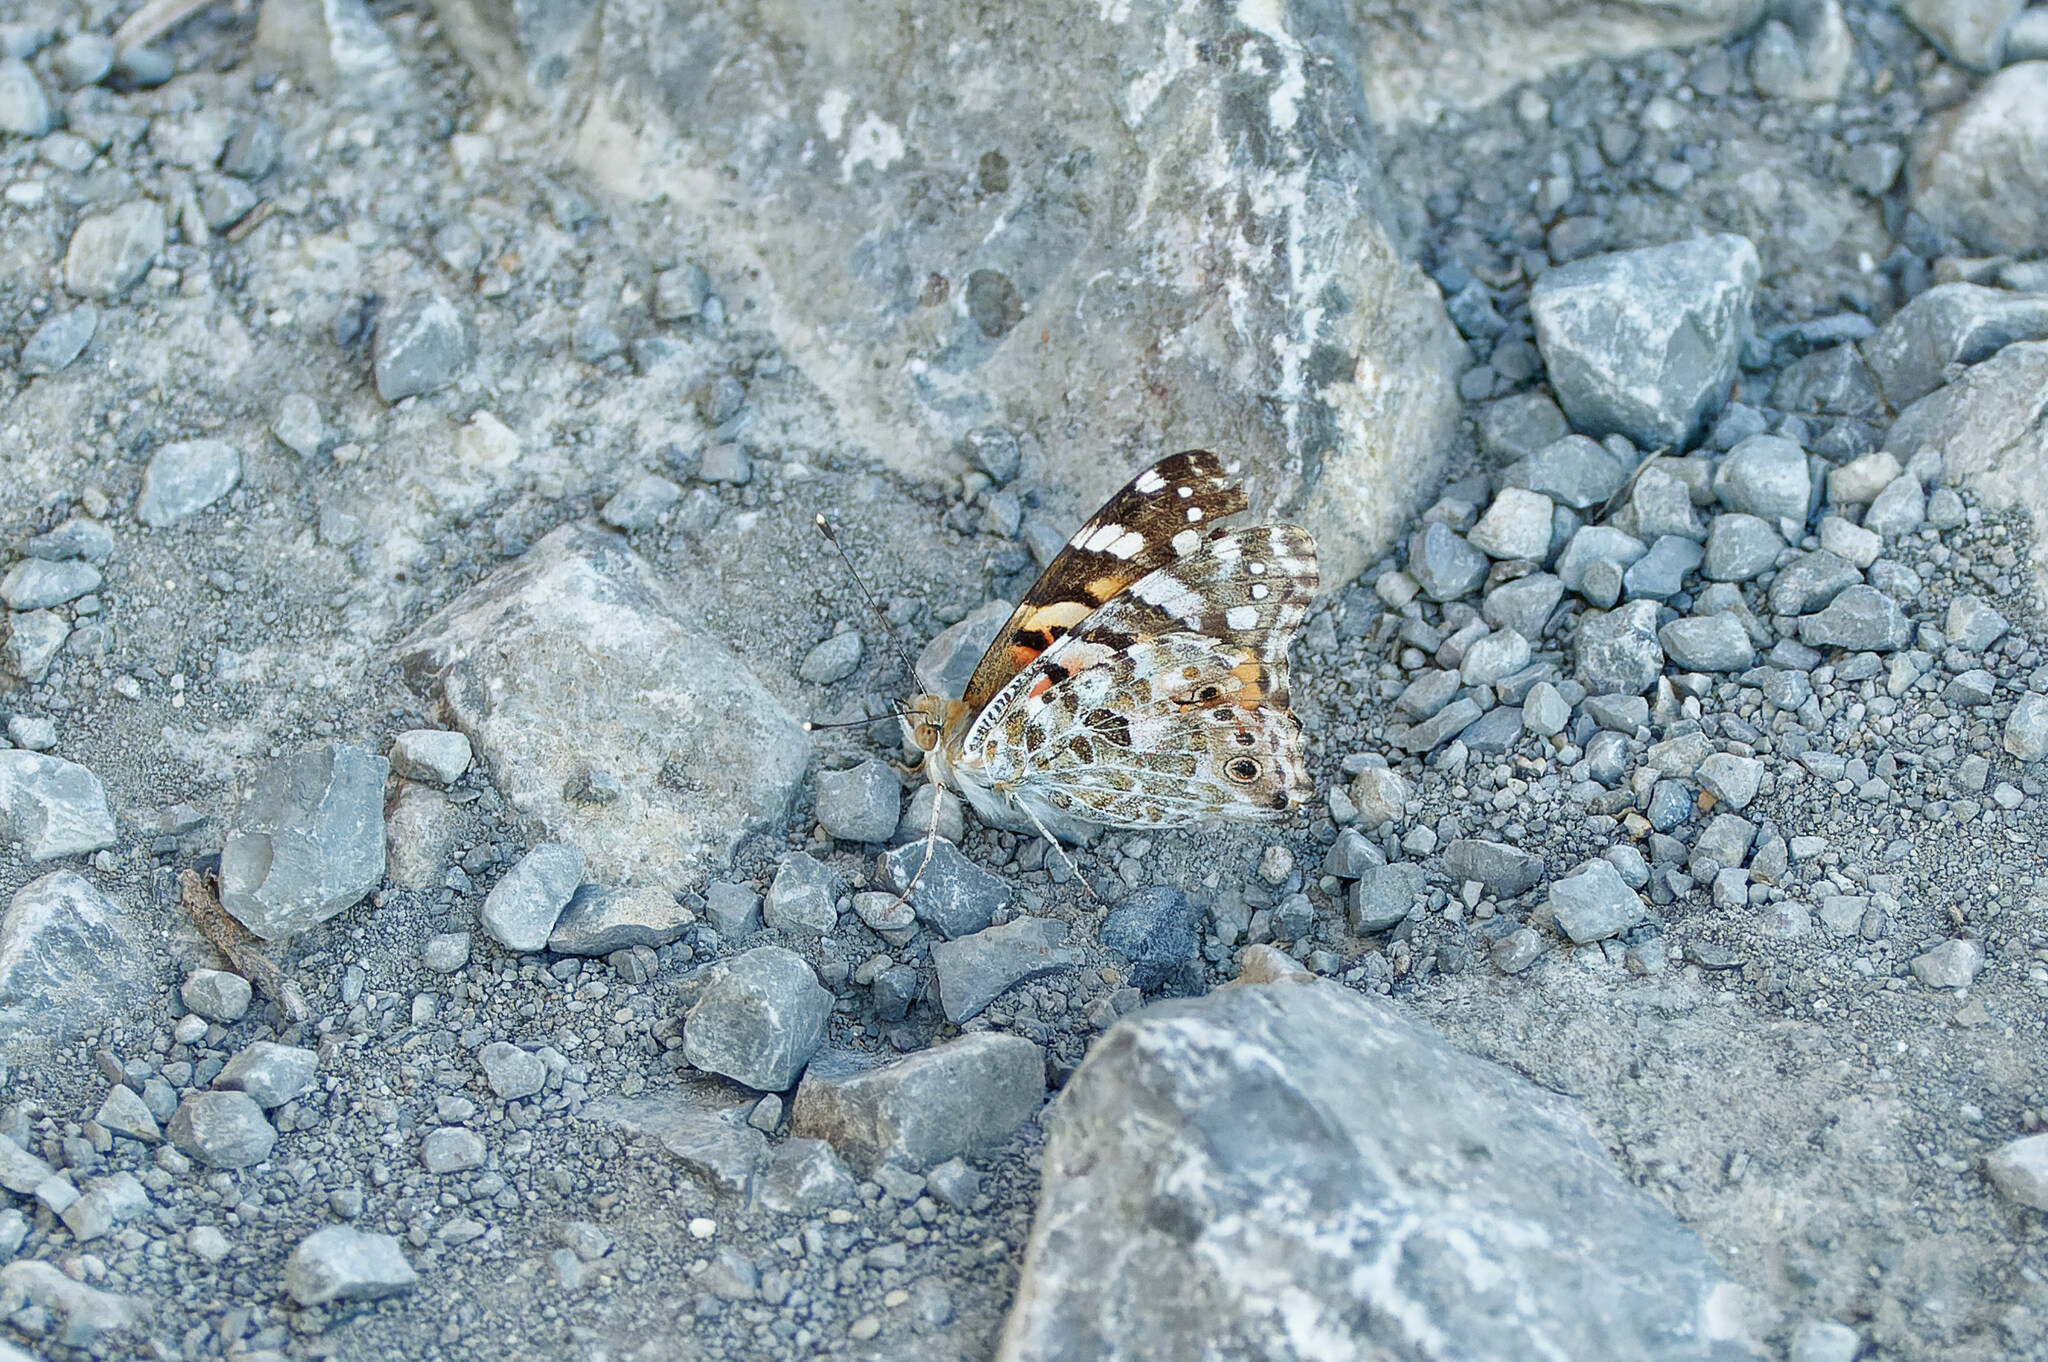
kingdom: Animalia
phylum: Arthropoda
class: Insecta
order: Lepidoptera
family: Nymphalidae
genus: Vanessa
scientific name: Vanessa cardui
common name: Painted lady
